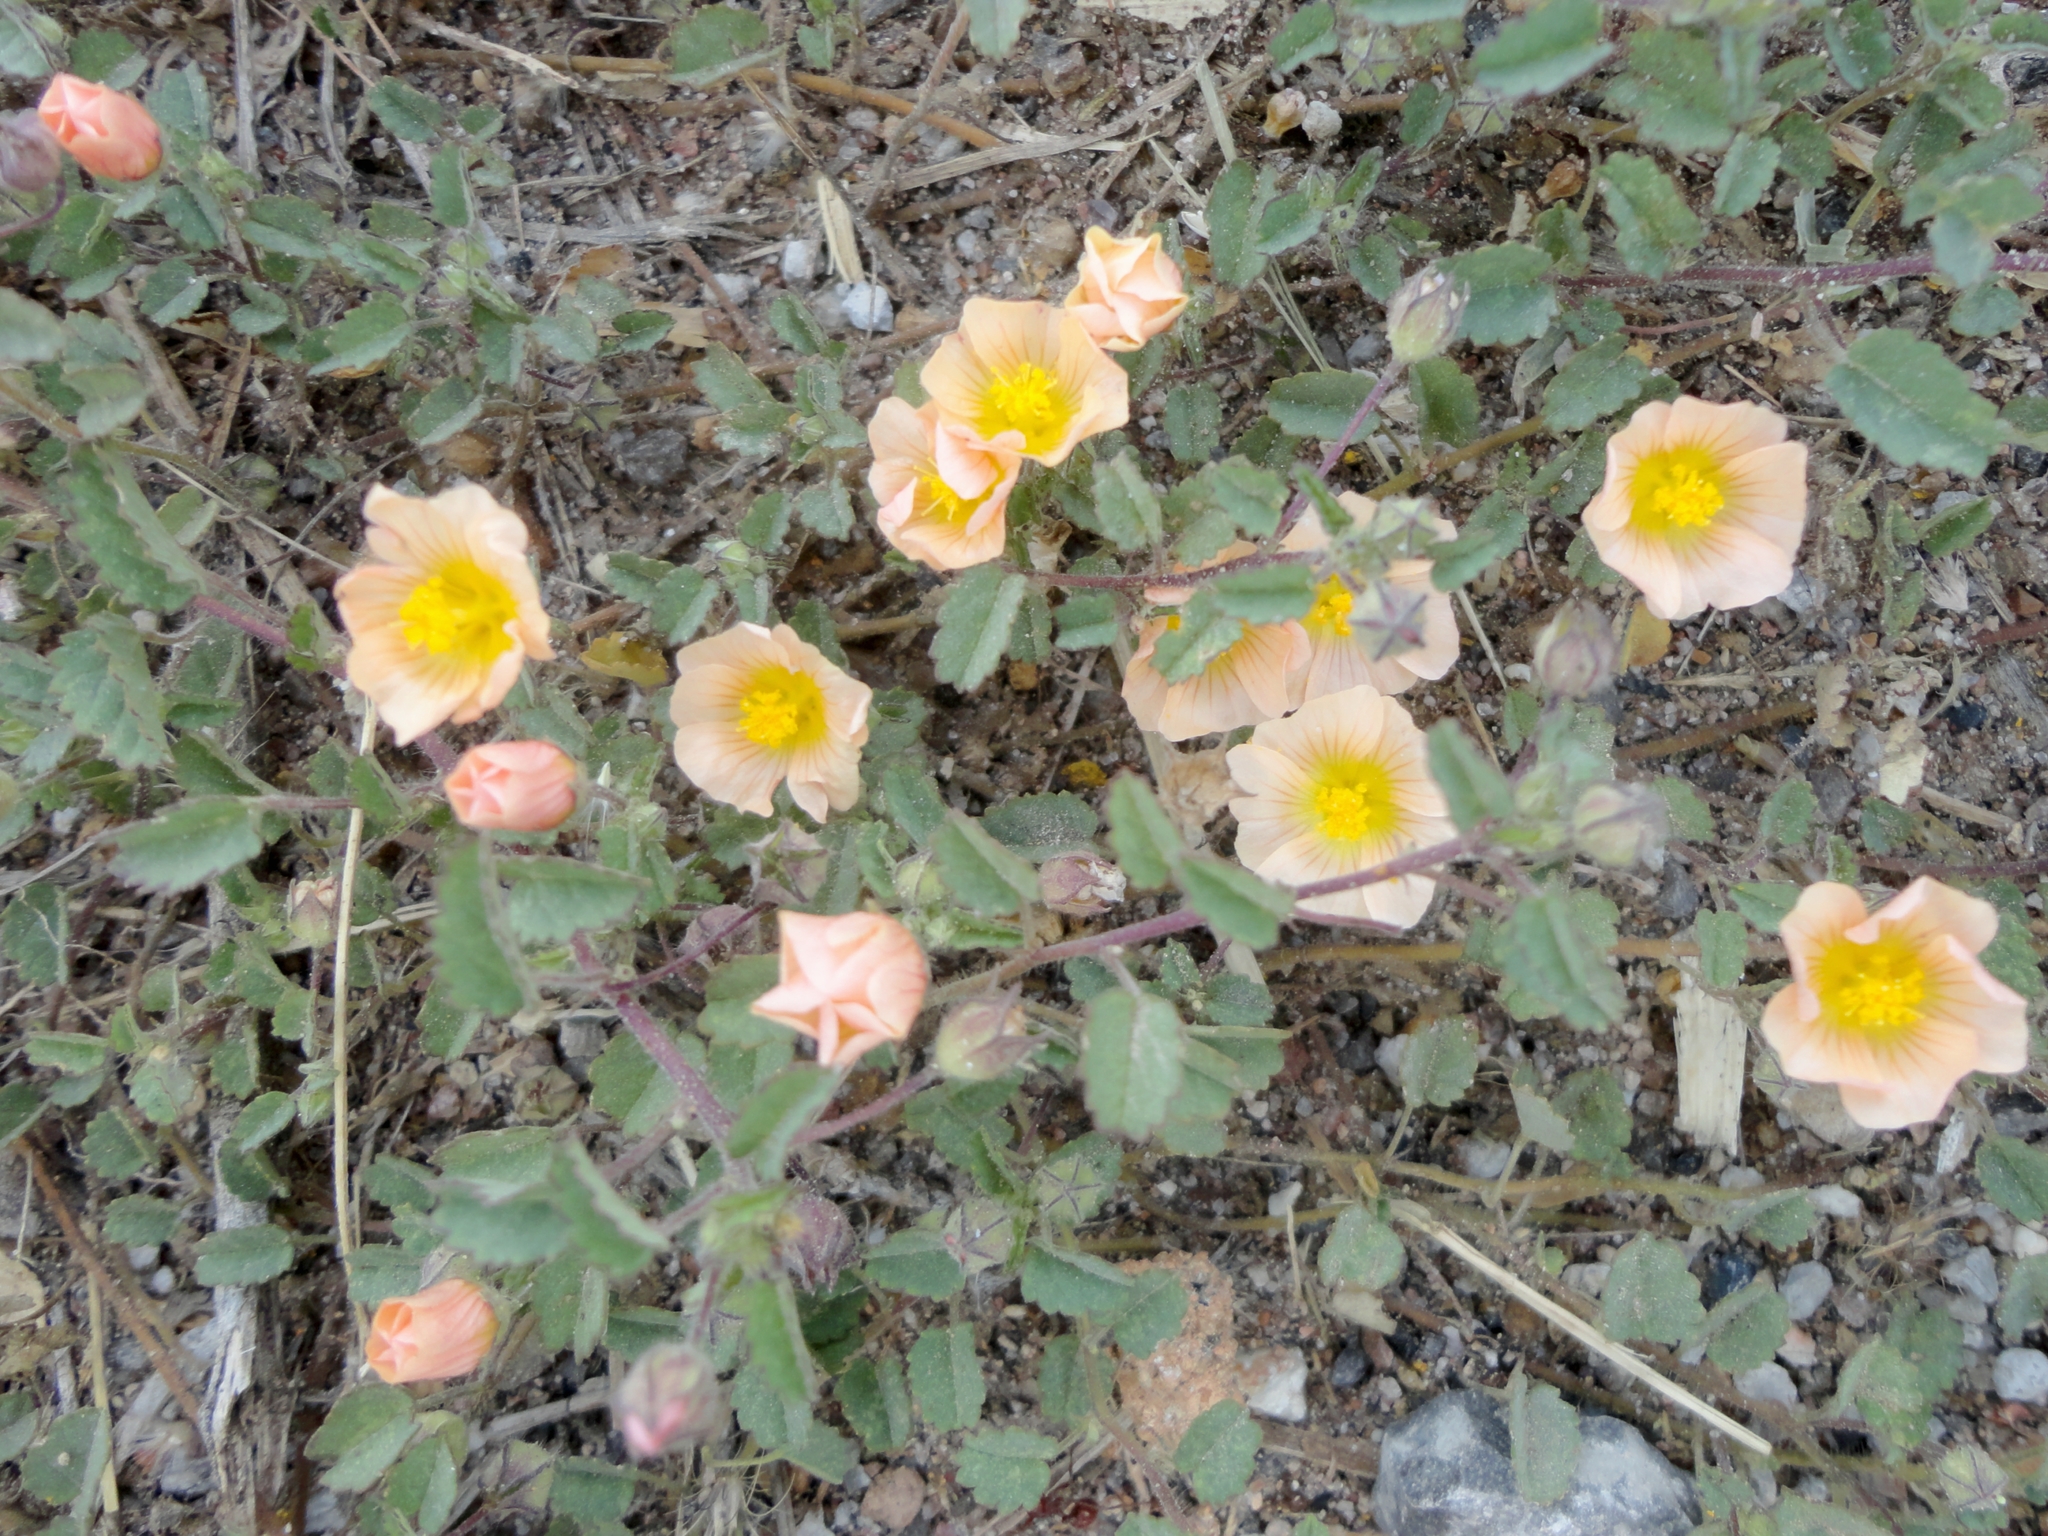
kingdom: Plantae
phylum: Tracheophyta
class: Magnoliopsida
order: Malvales
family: Malvaceae
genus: Sida
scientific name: Sida abutilifolia
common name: Spreading fanpetals
